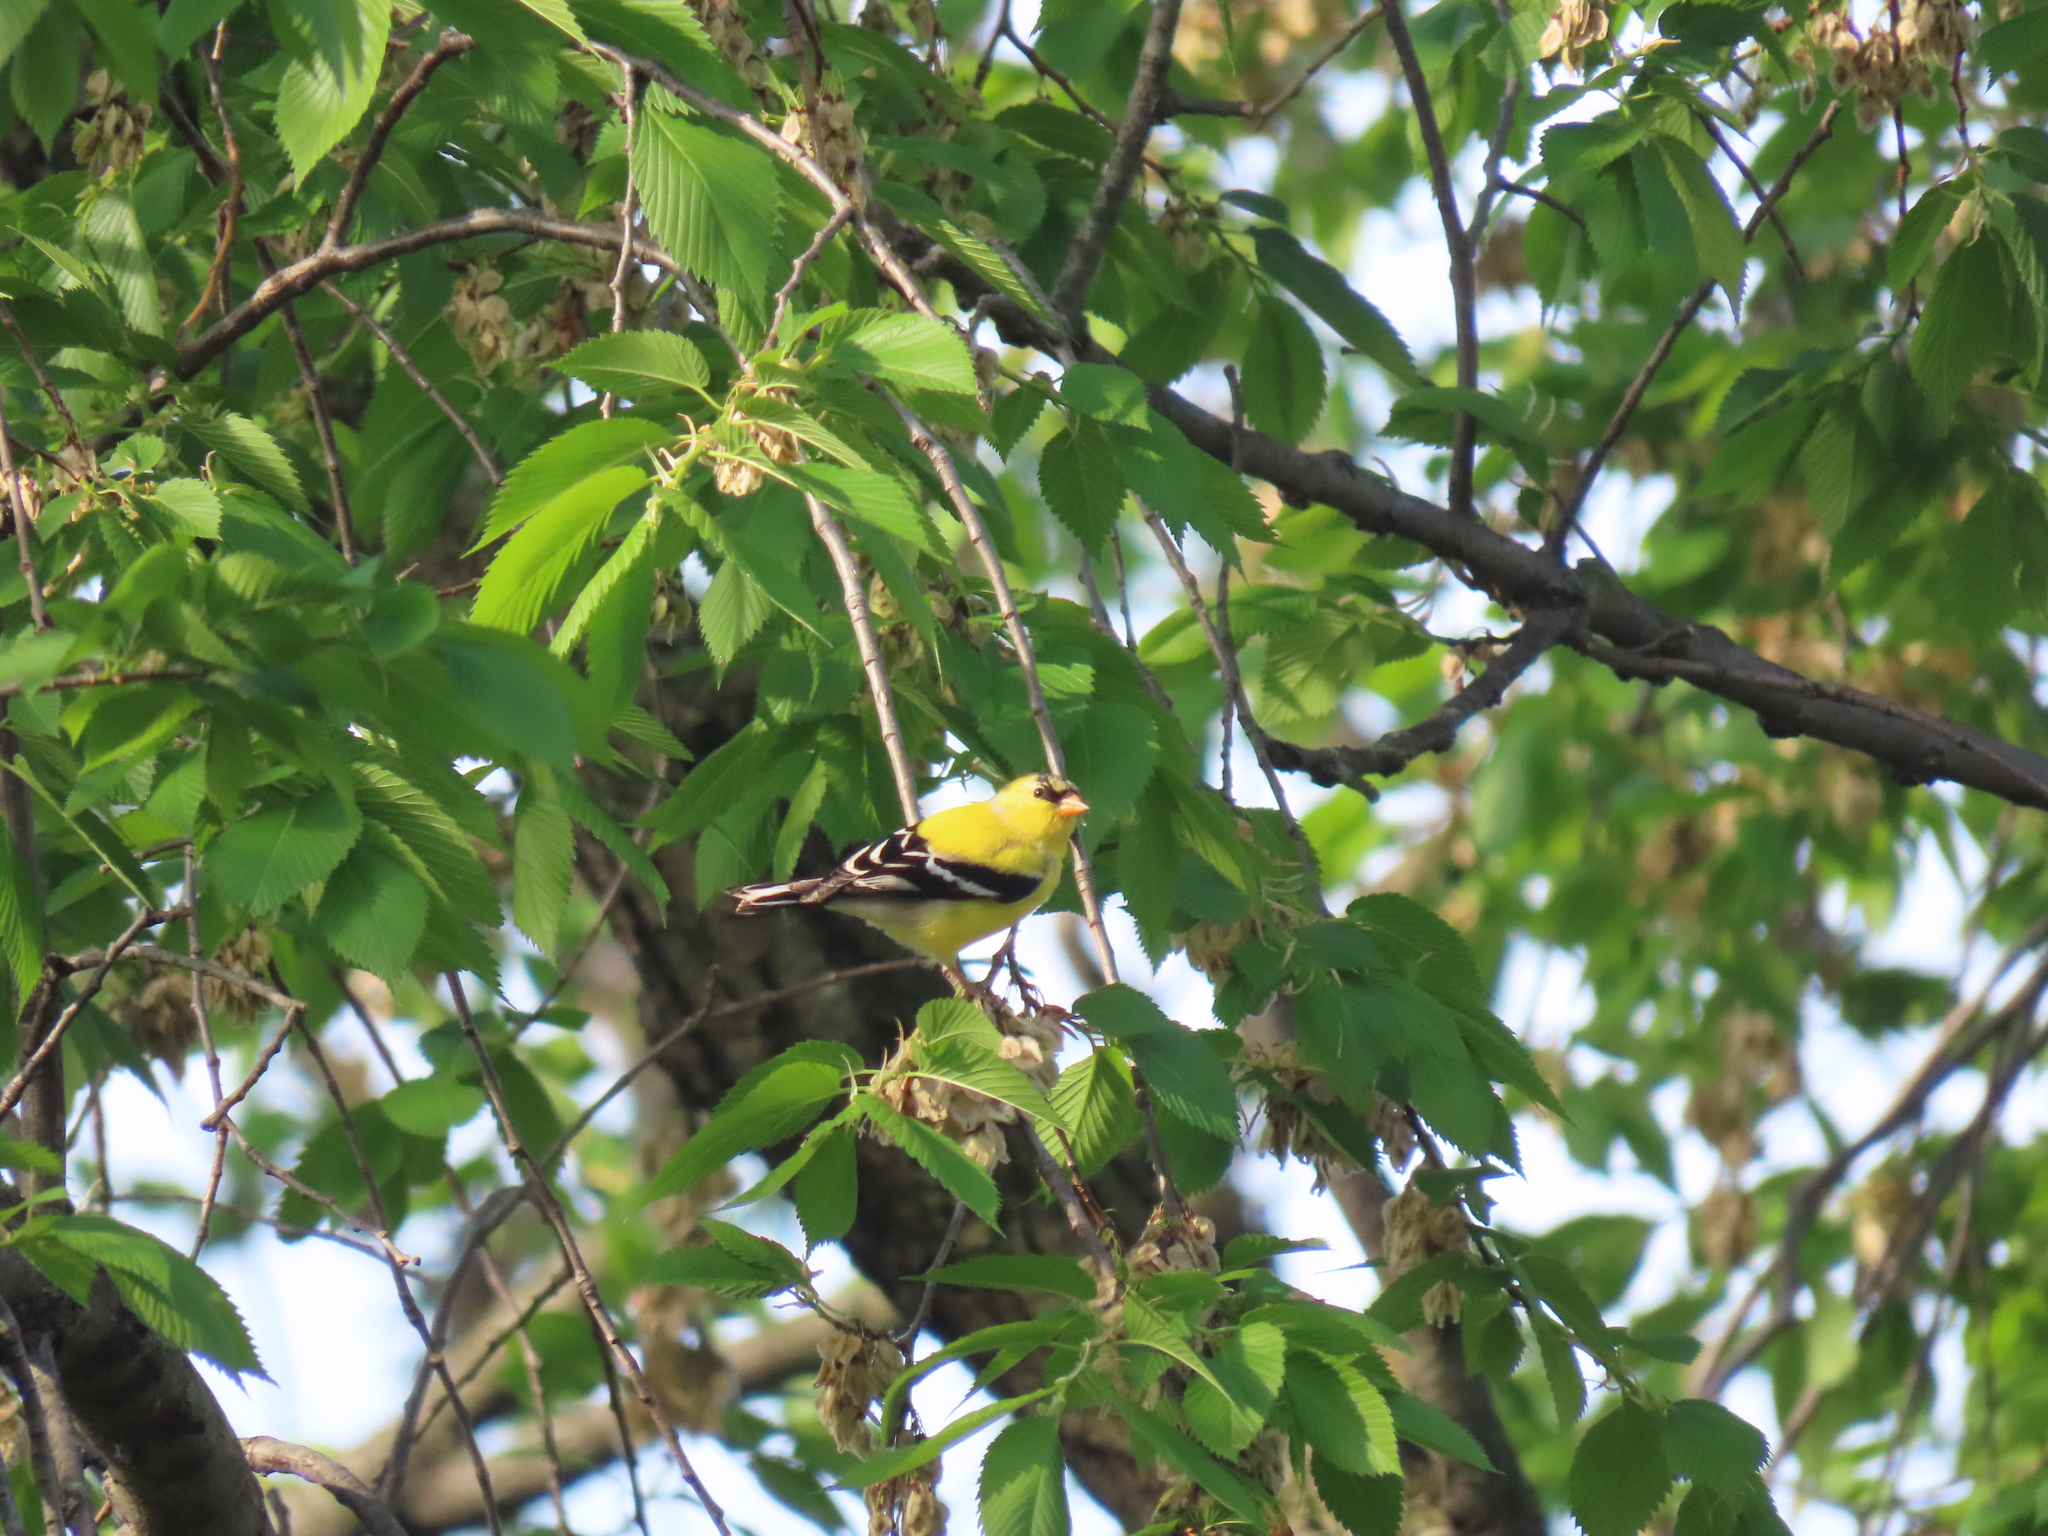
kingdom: Animalia
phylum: Chordata
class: Aves
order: Passeriformes
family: Fringillidae
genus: Spinus
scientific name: Spinus tristis
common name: American goldfinch
